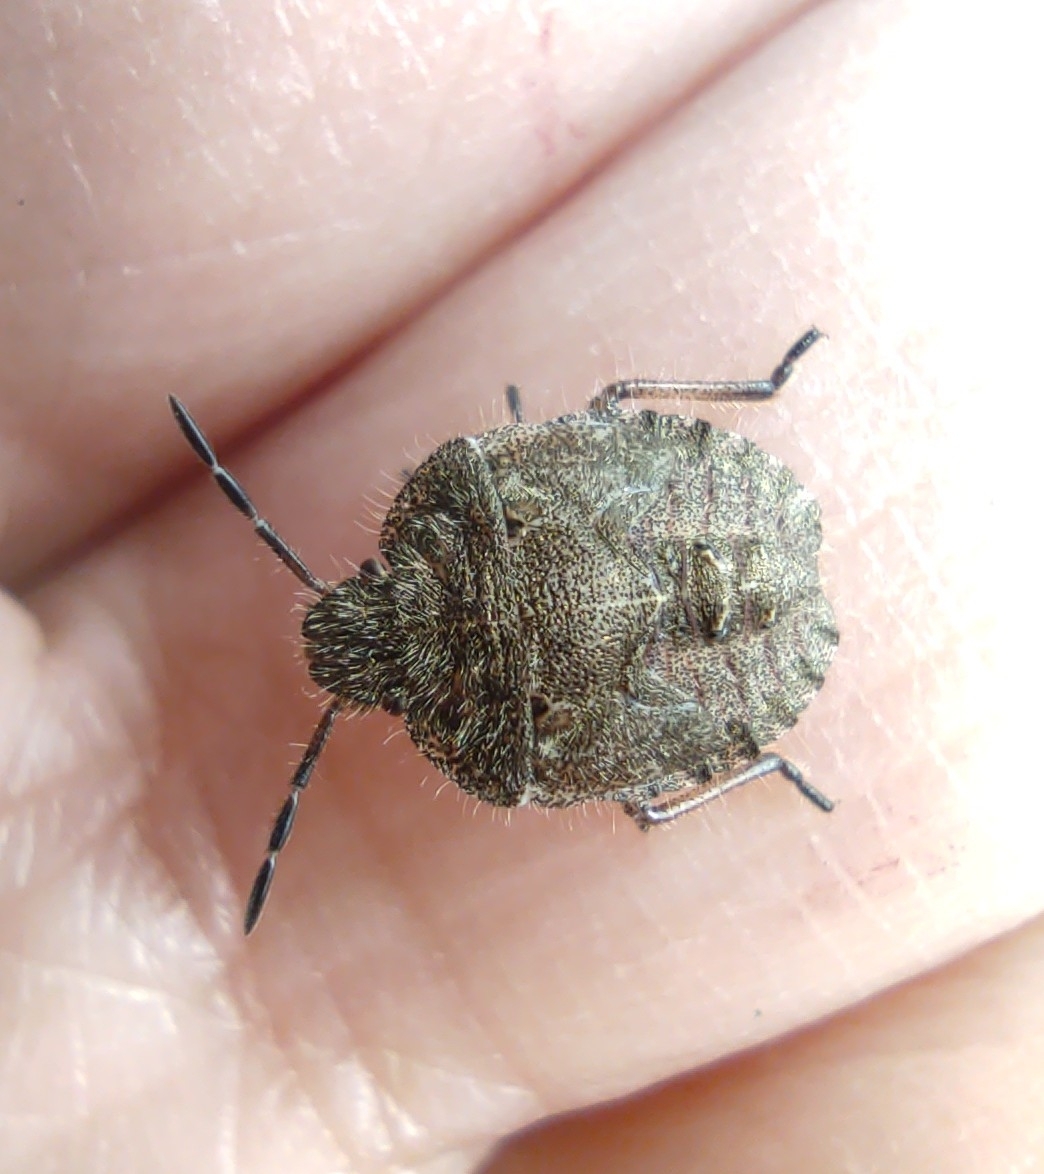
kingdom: Animalia
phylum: Arthropoda
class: Insecta
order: Hemiptera
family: Pentatomidae
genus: Dolycoris
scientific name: Dolycoris baccarum
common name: Sloe bug
